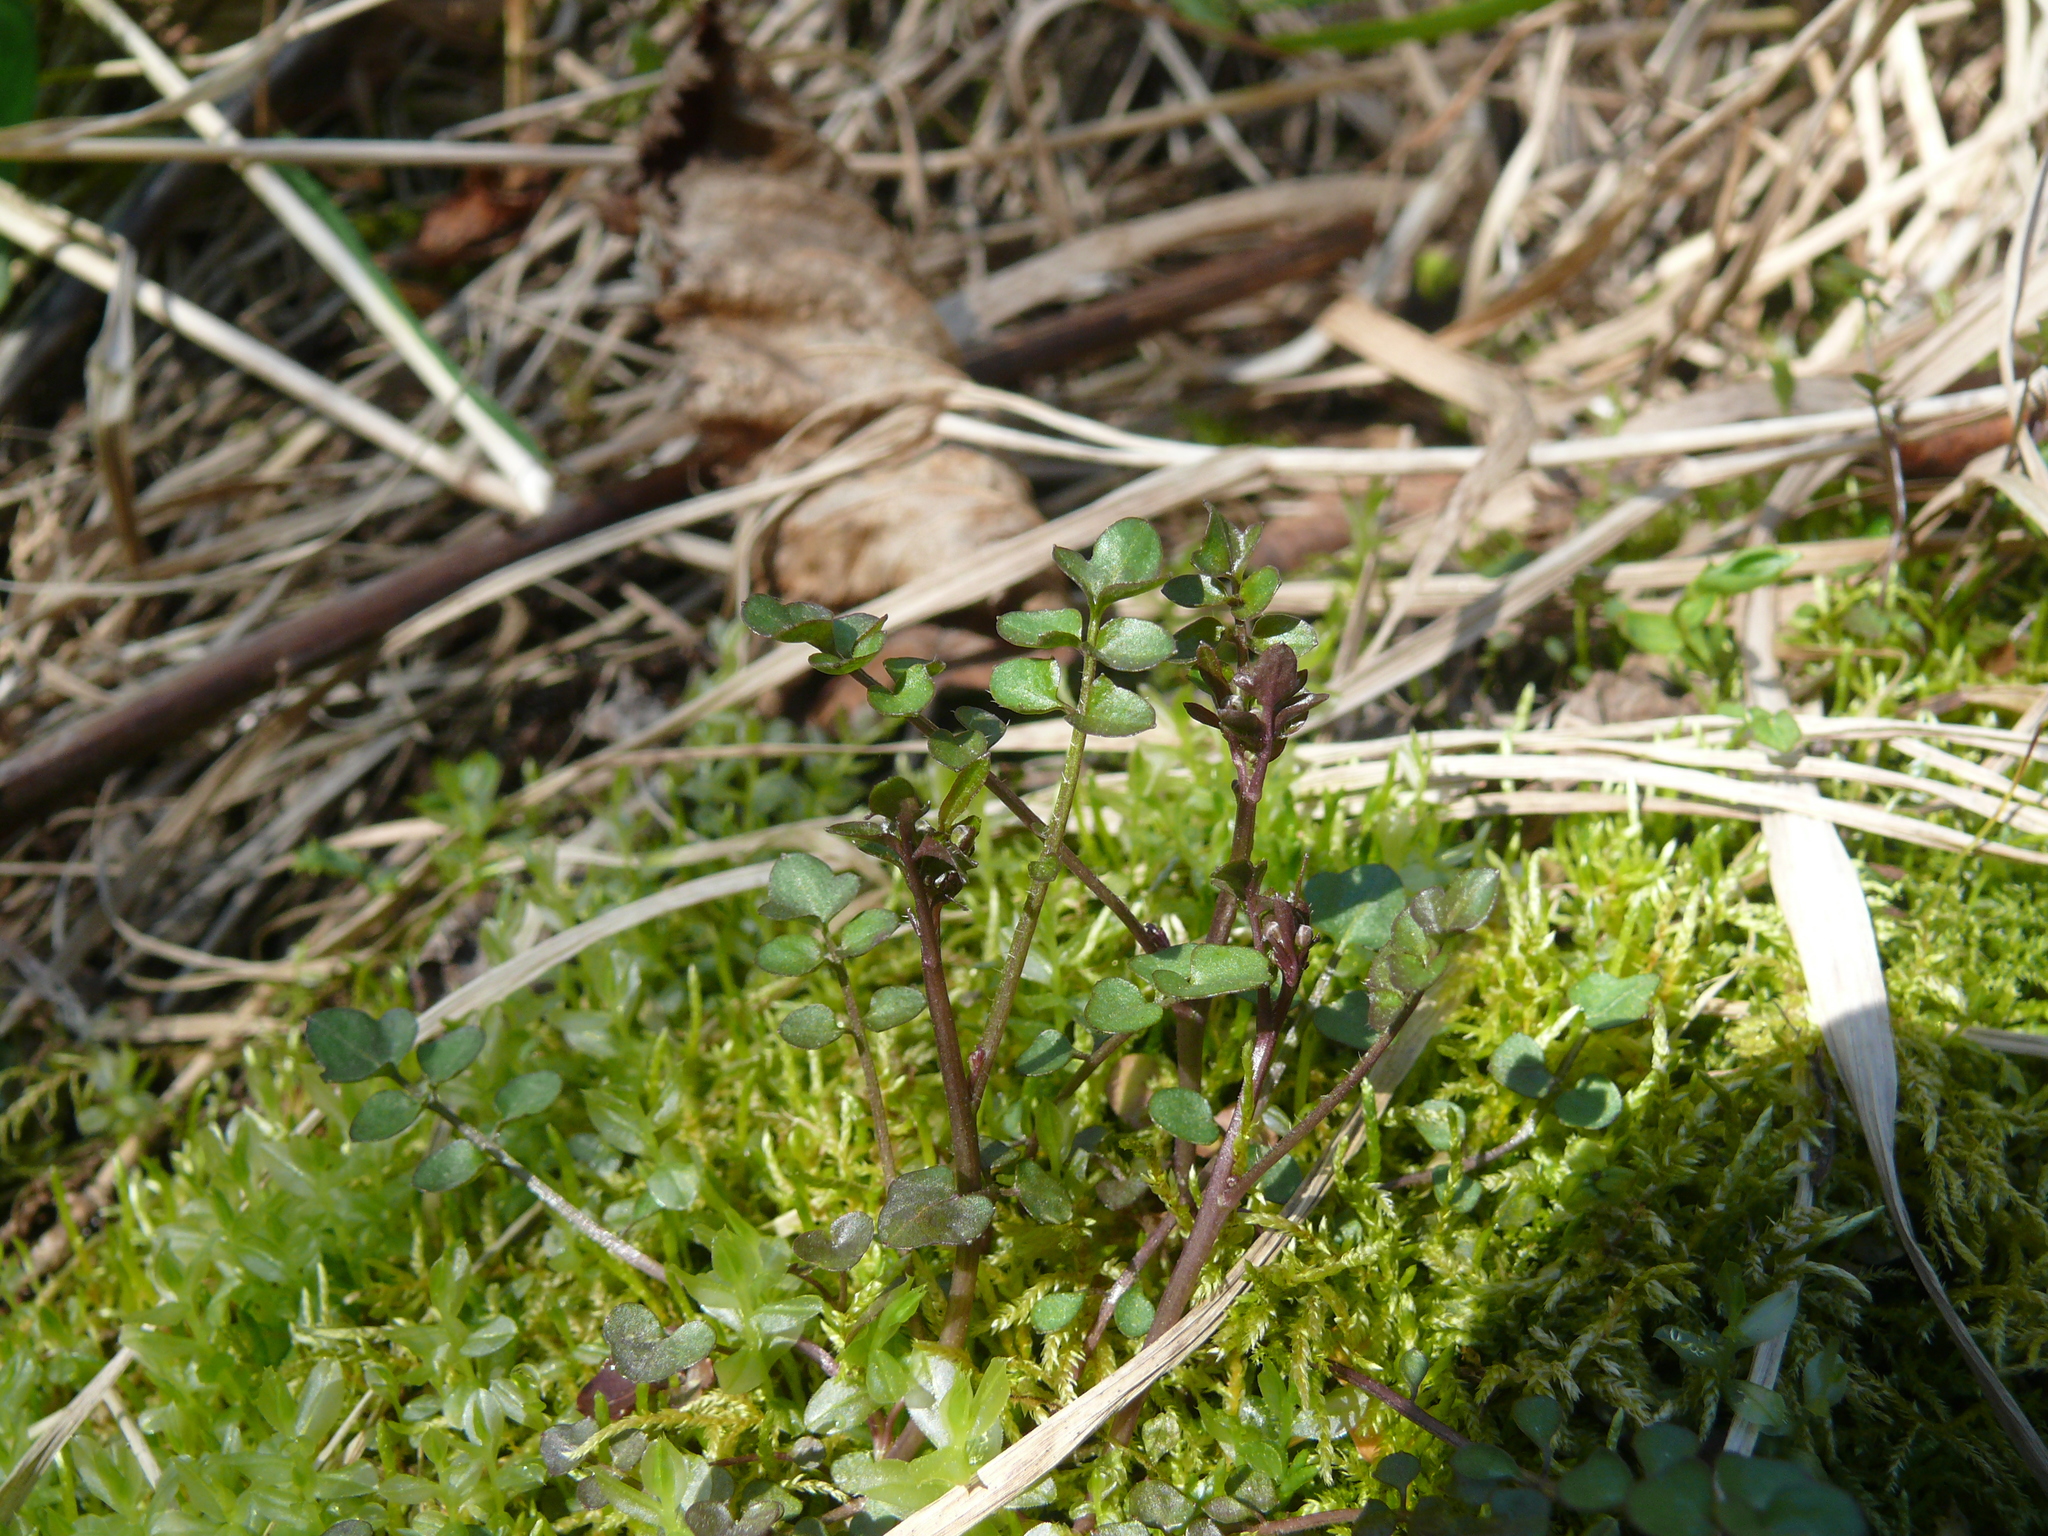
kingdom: Plantae
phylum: Tracheophyta
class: Magnoliopsida
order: Brassicales
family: Brassicaceae
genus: Cardamine
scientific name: Cardamine umbellata
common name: Siberian bittercress
